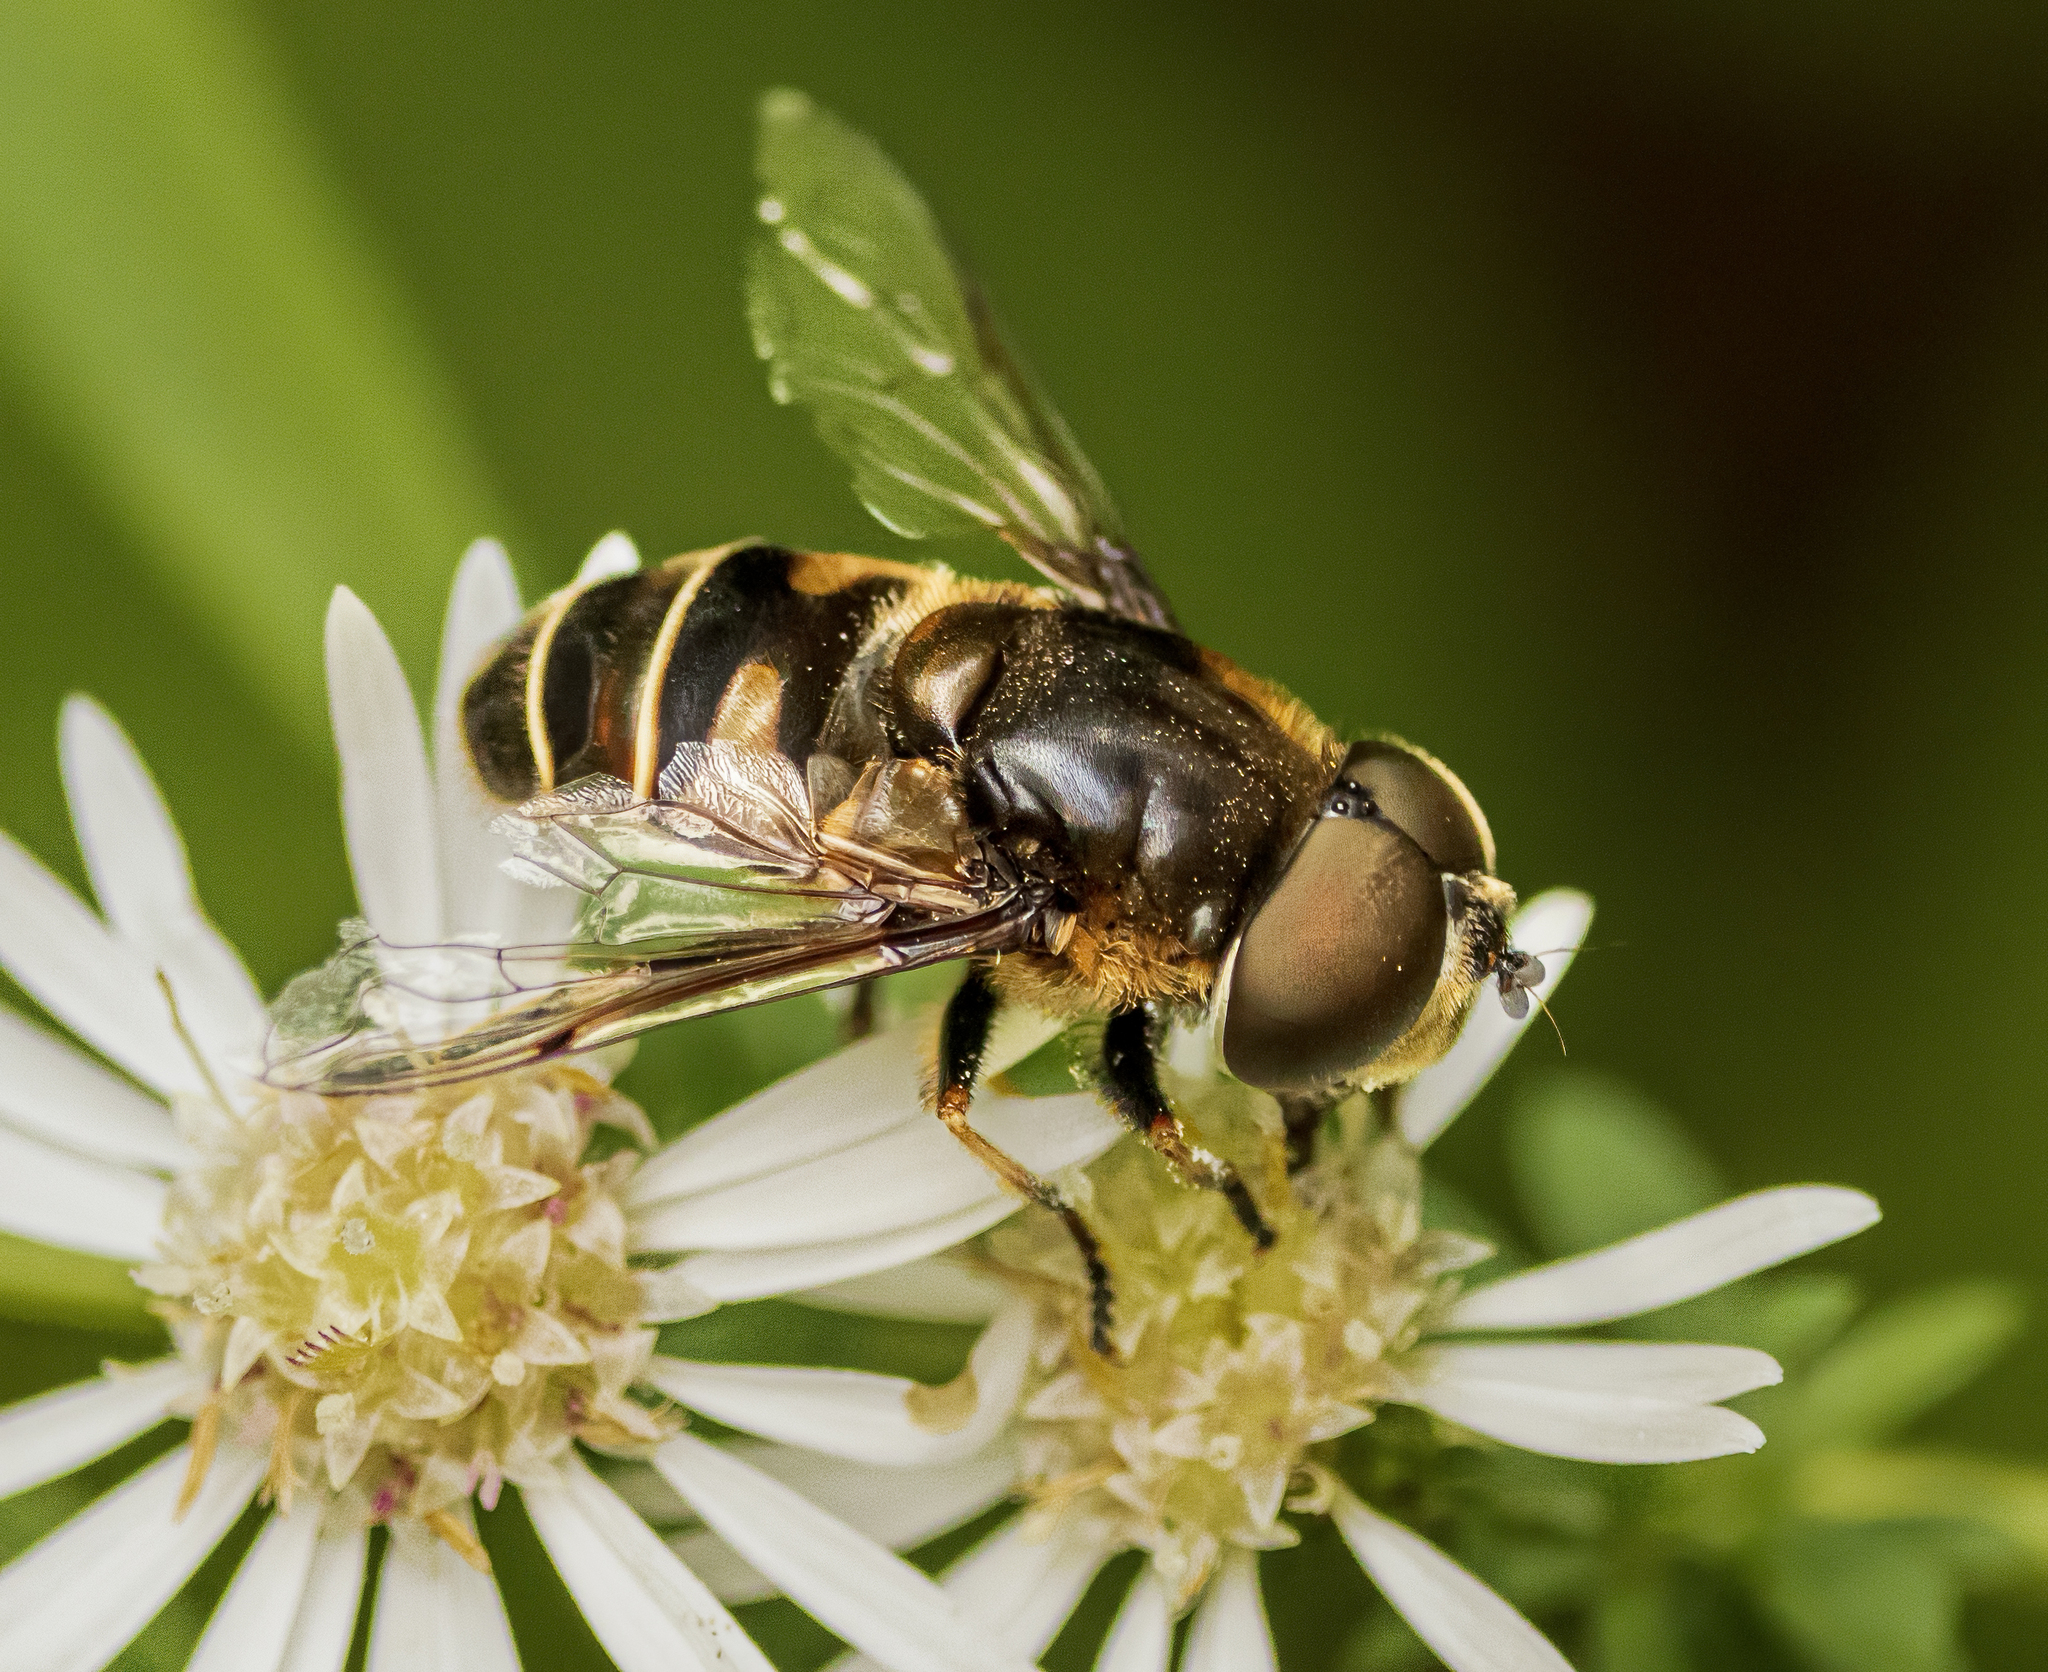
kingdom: Animalia
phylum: Arthropoda
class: Insecta
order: Diptera
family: Syrphidae
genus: Eristalis
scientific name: Eristalis dimidiata
